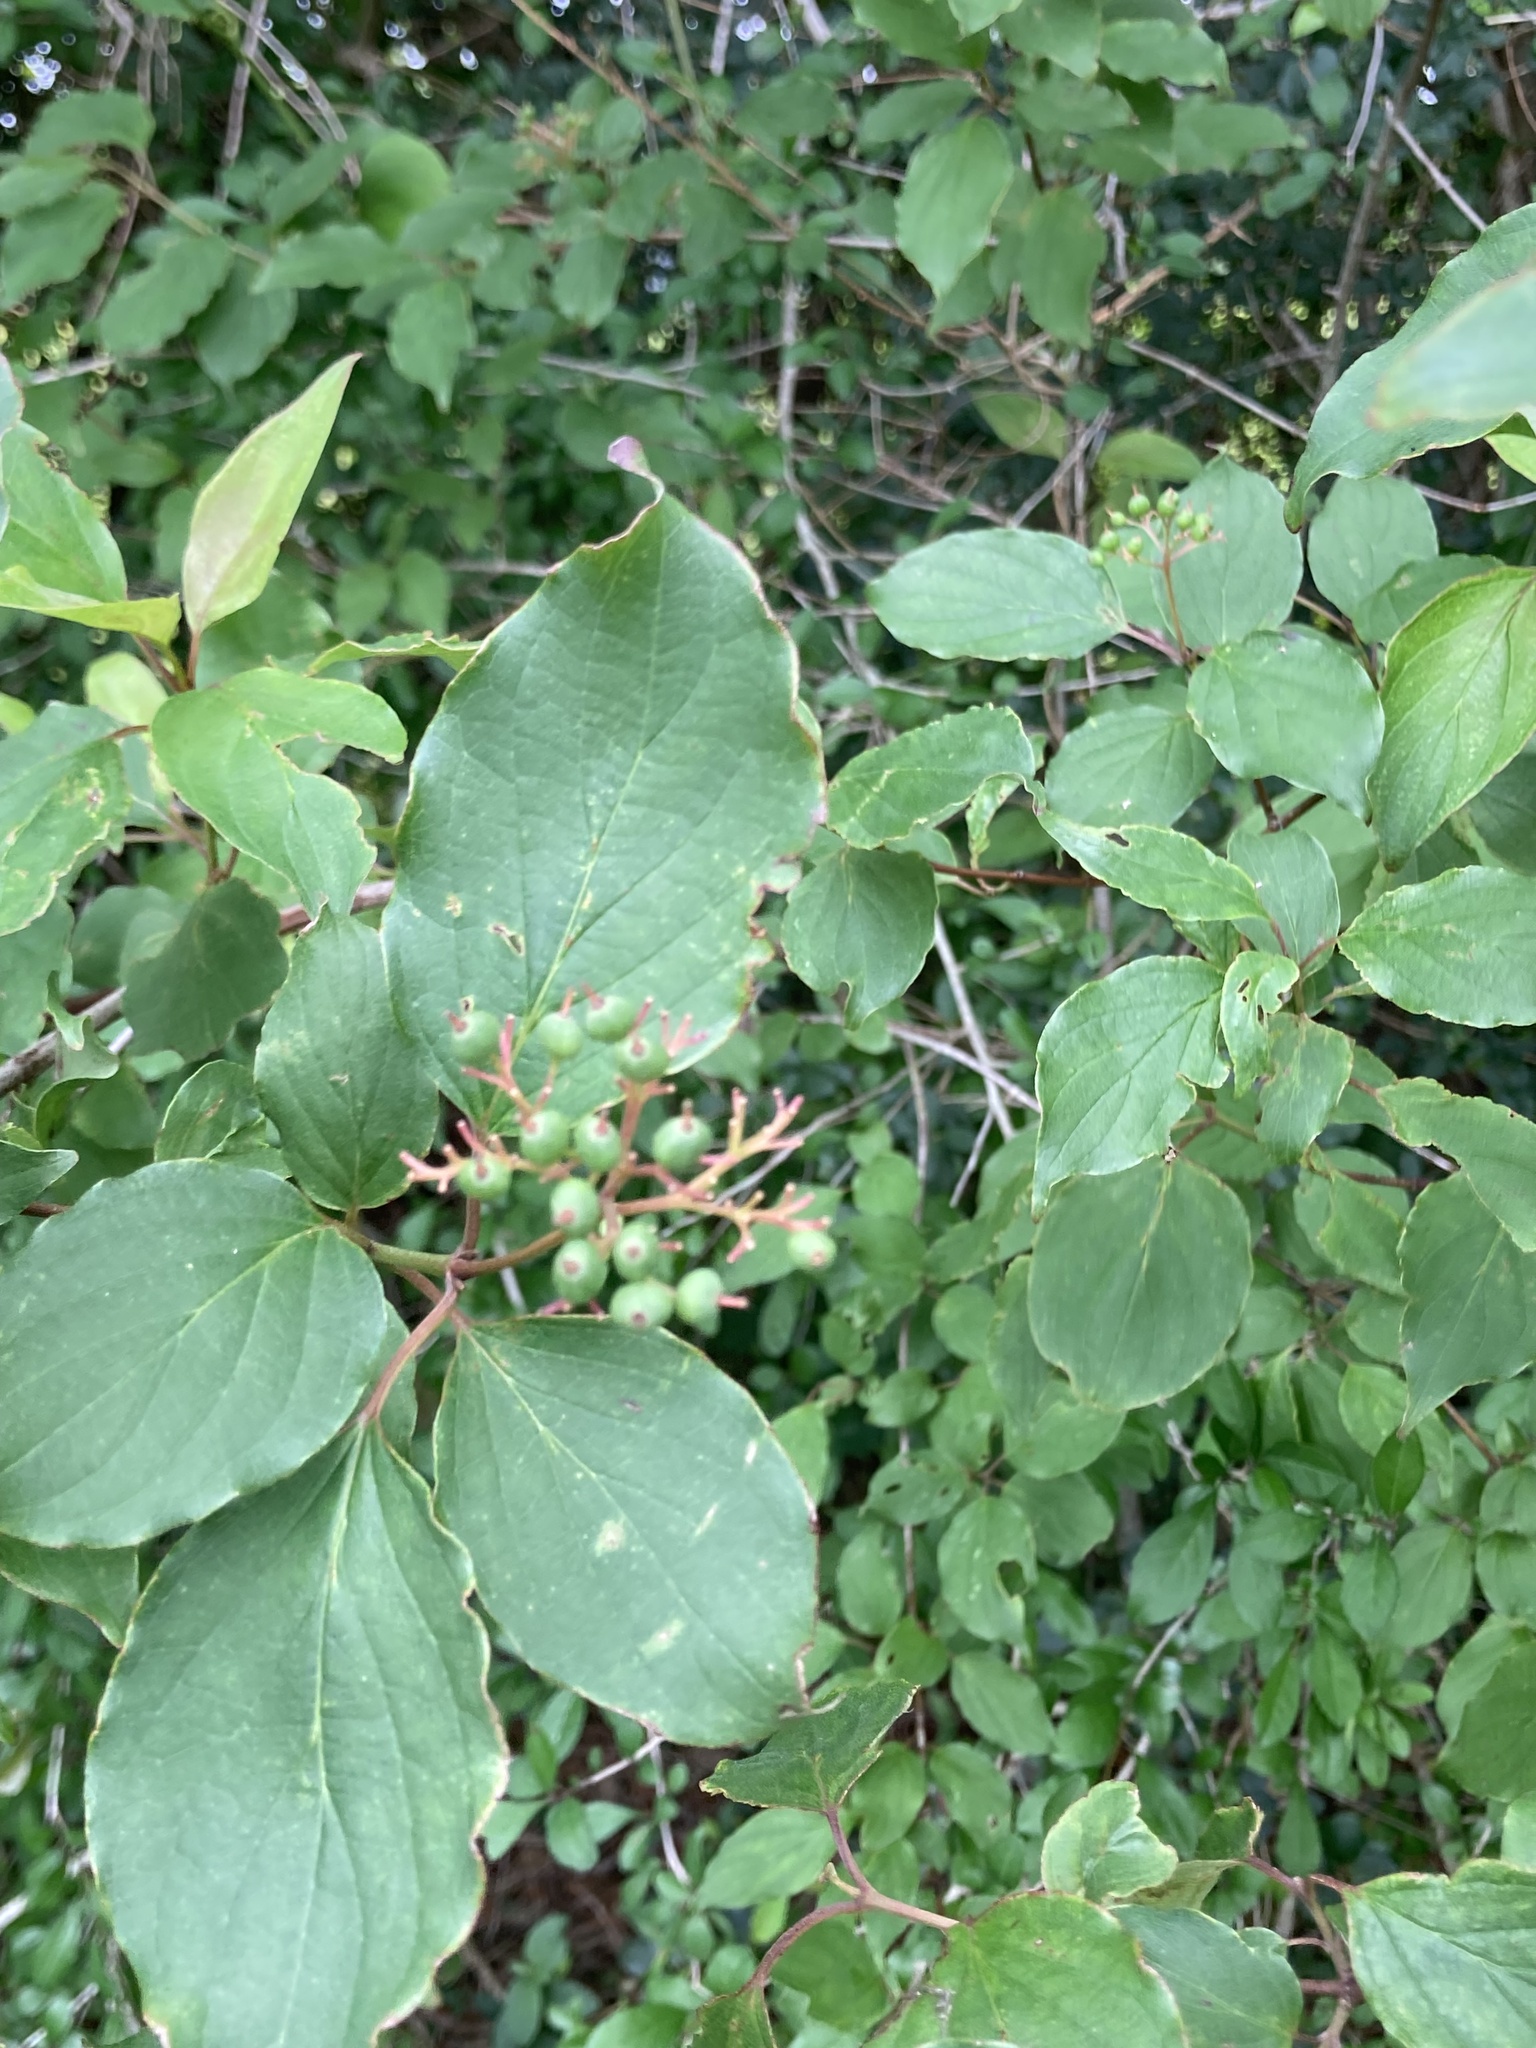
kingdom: Plantae
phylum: Tracheophyta
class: Magnoliopsida
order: Cornales
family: Cornaceae
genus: Cornus
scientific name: Cornus drummondii
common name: Rough-leaf dogwood
